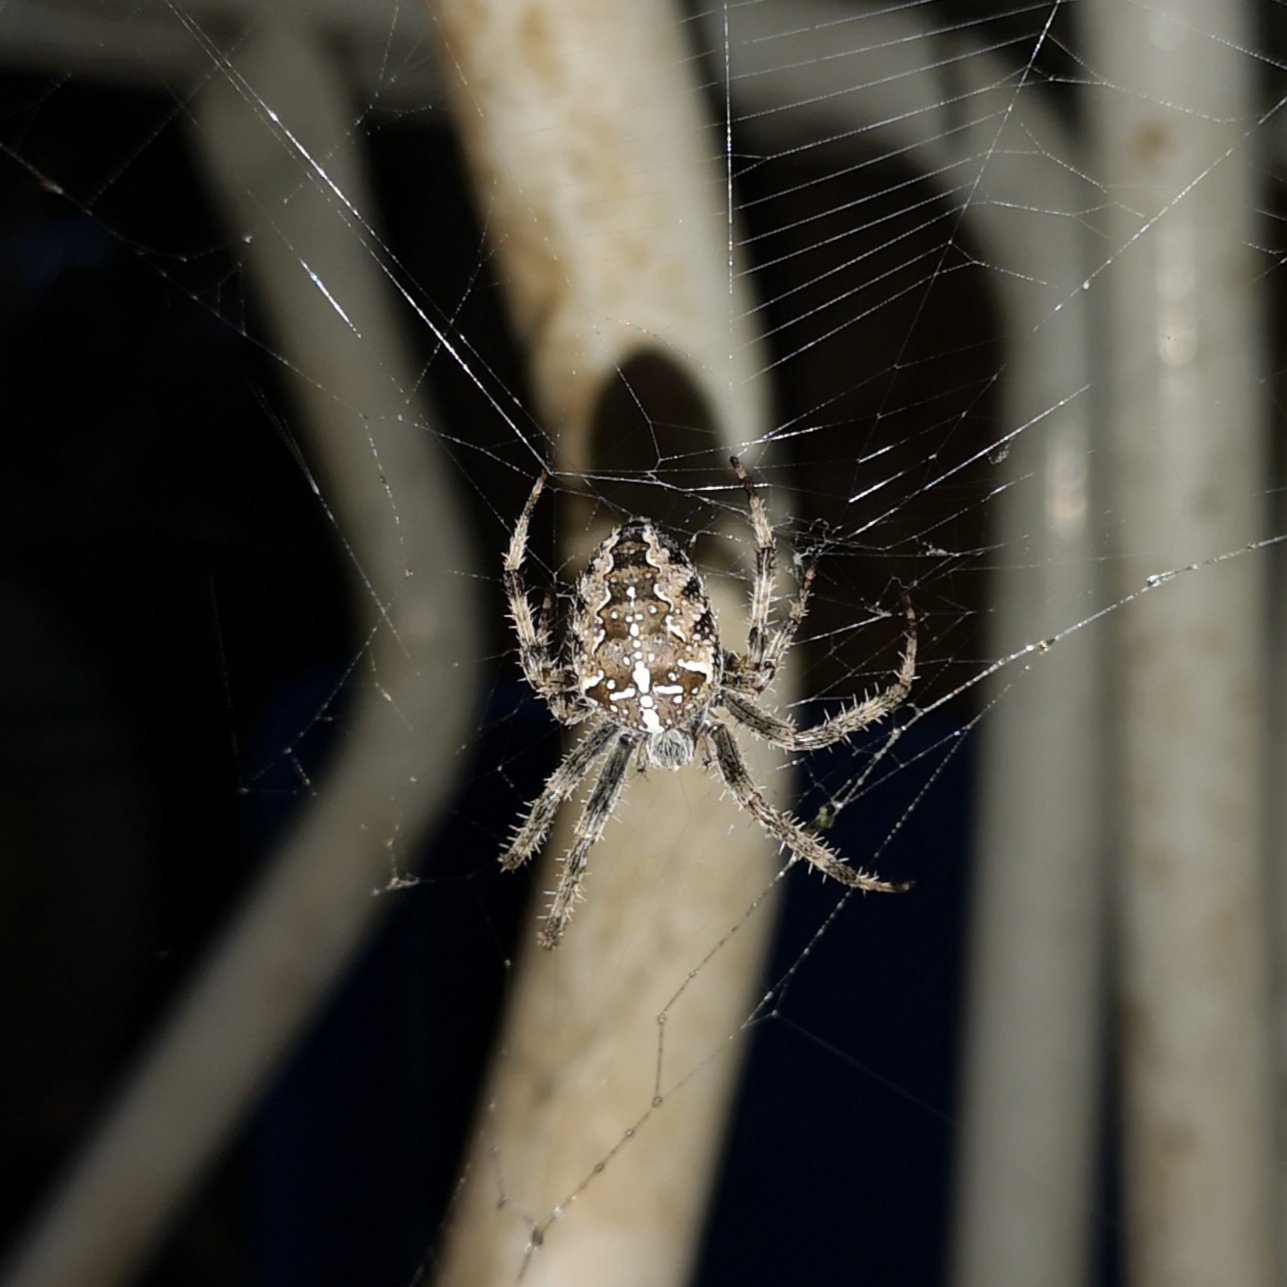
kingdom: Animalia
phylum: Arthropoda
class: Arachnida
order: Araneae
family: Araneidae
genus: Araneus
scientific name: Araneus diadematus
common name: Cross orbweaver
